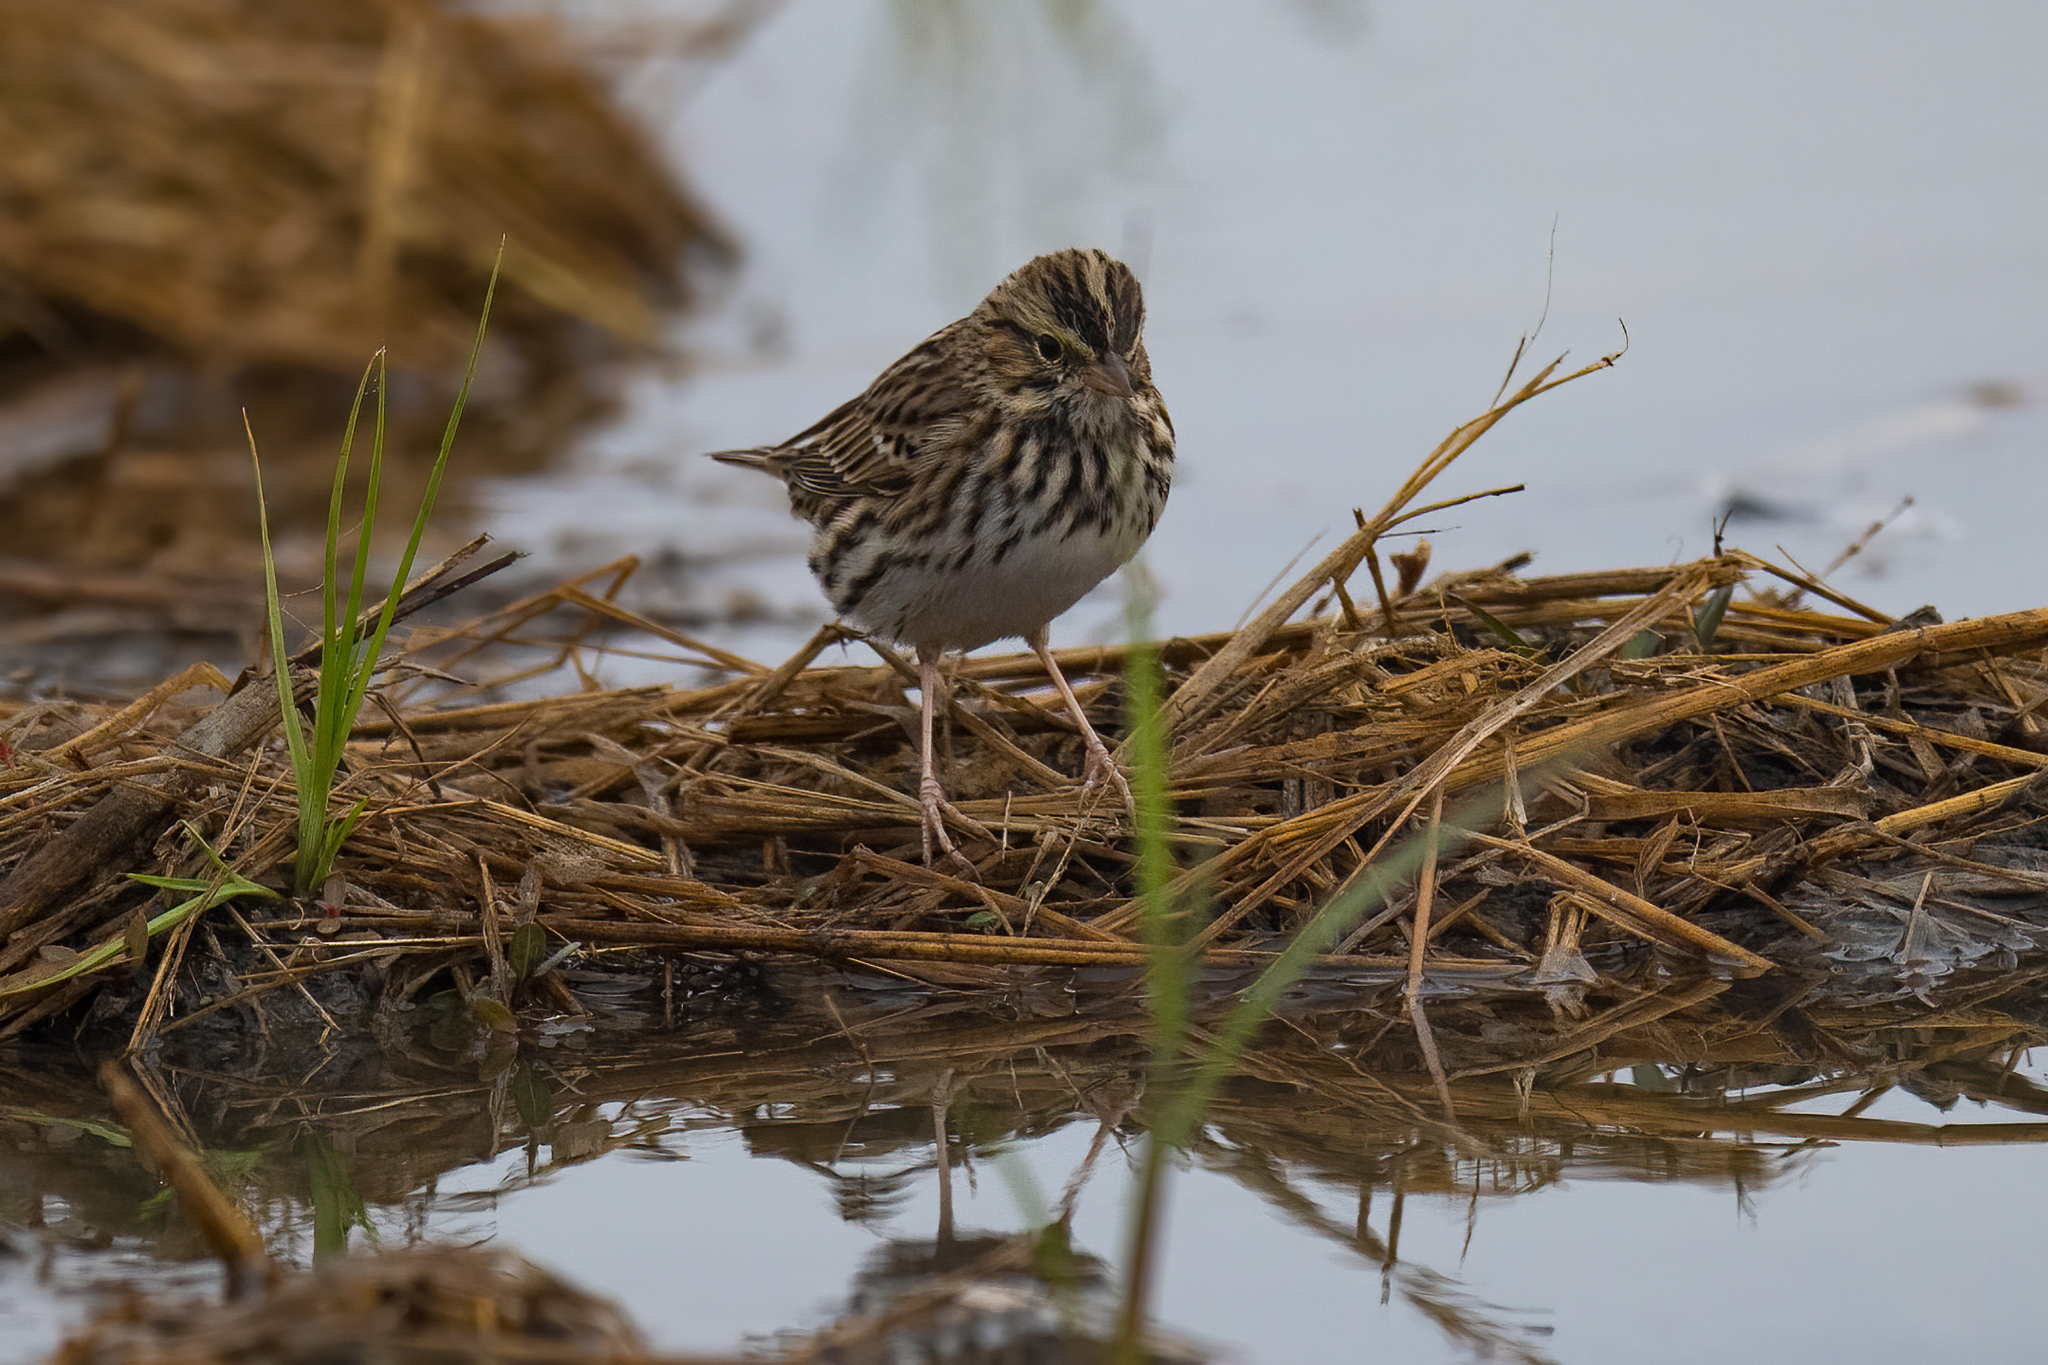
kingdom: Animalia
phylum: Chordata
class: Aves
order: Passeriformes
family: Passerellidae
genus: Passerculus
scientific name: Passerculus sandwichensis
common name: Savannah sparrow
